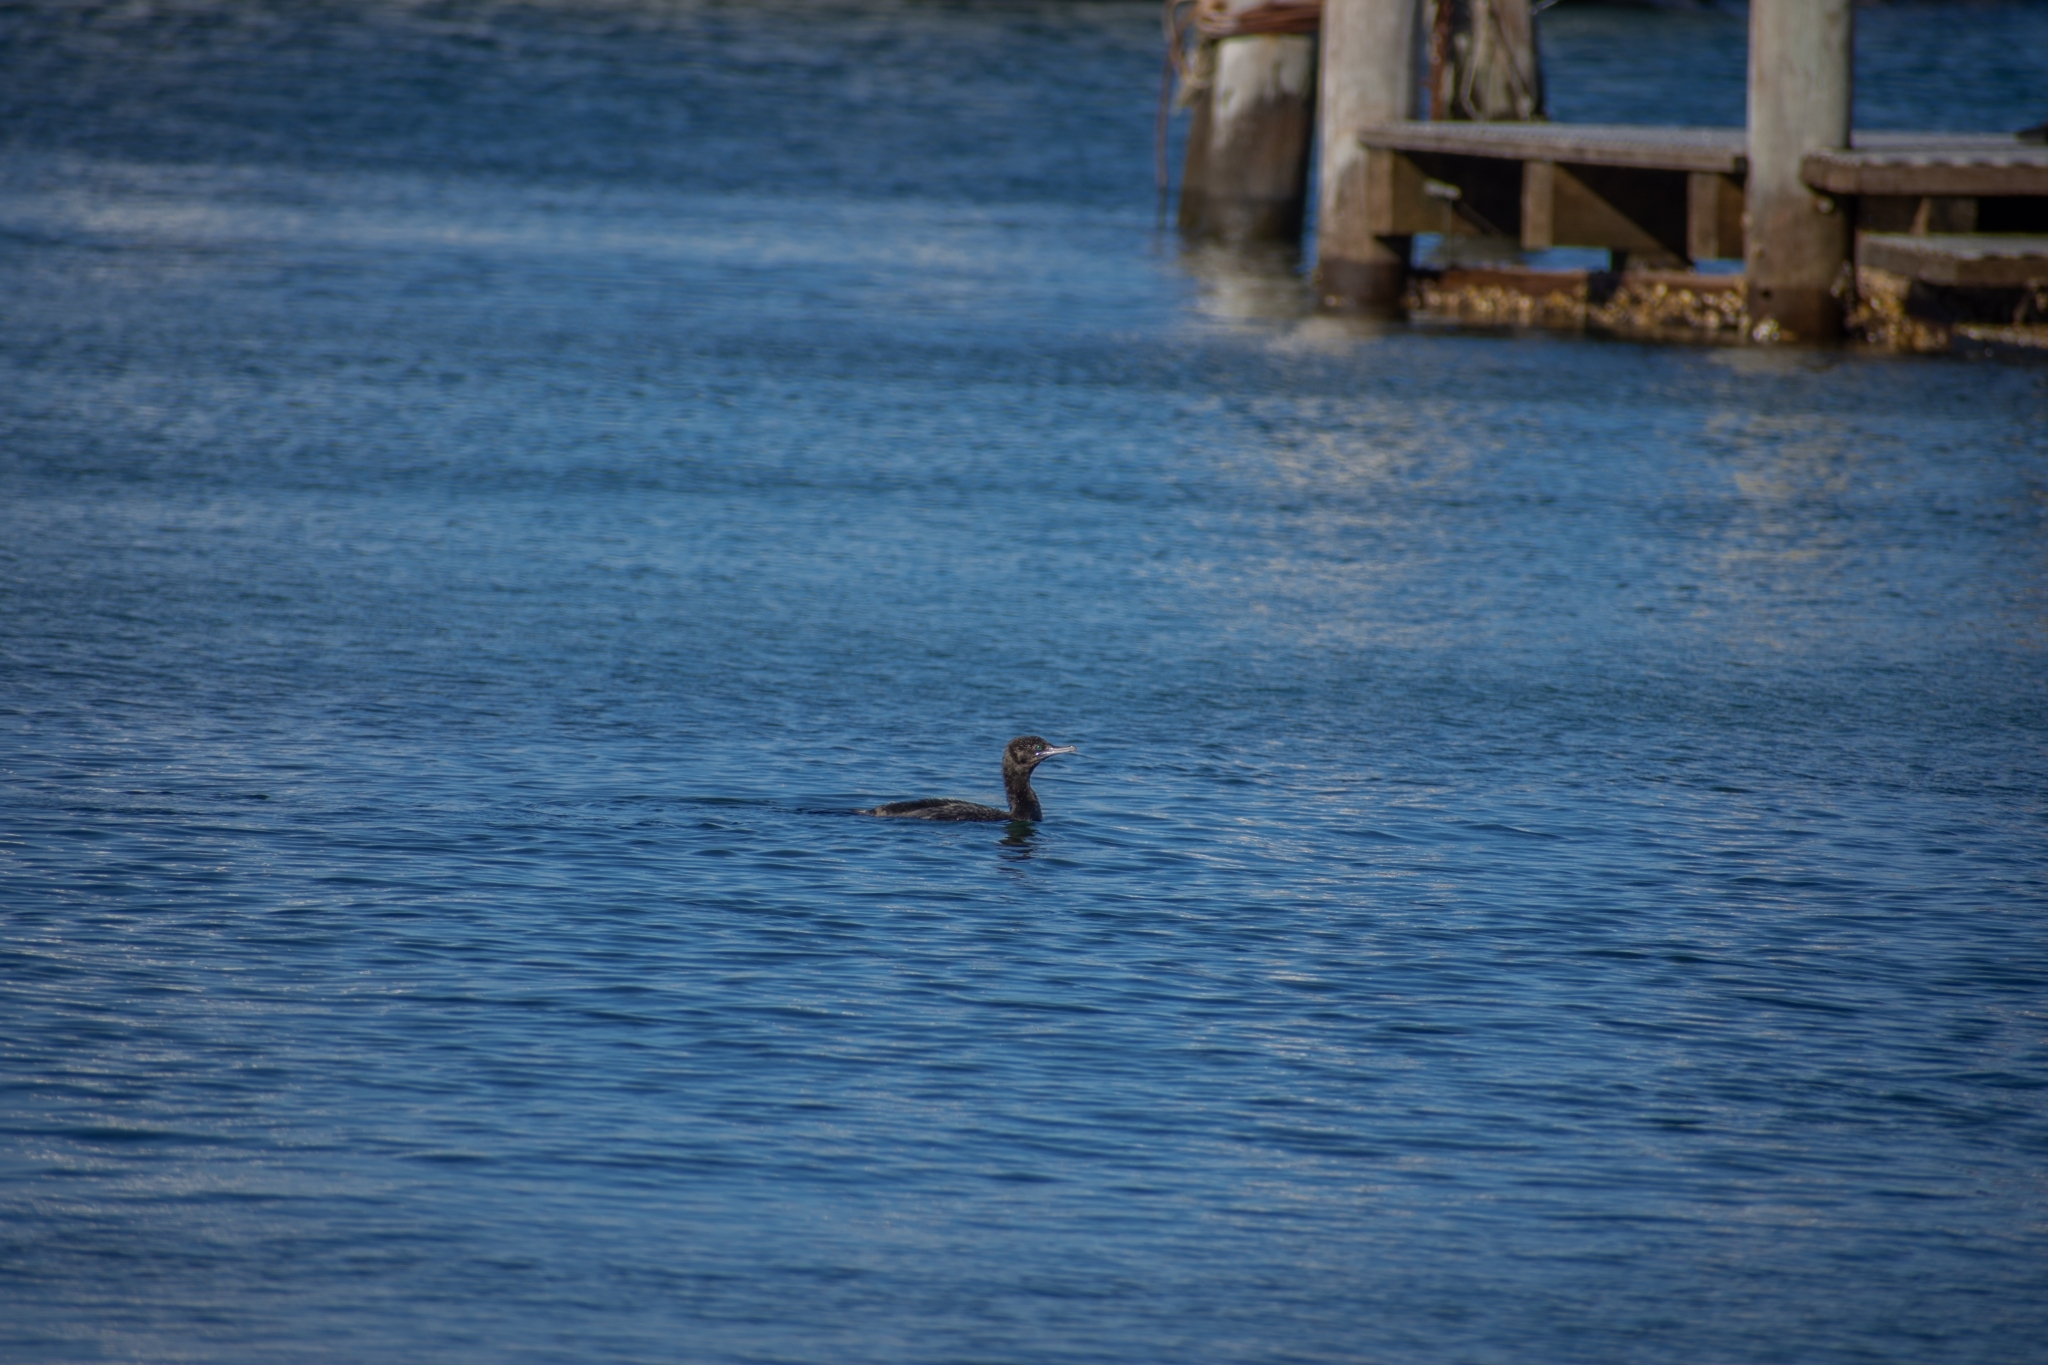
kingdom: Animalia
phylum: Chordata
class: Aves
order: Suliformes
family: Phalacrocoracidae
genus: Phalacrocorax
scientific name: Phalacrocorax sulcirostris
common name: Little black cormorant
